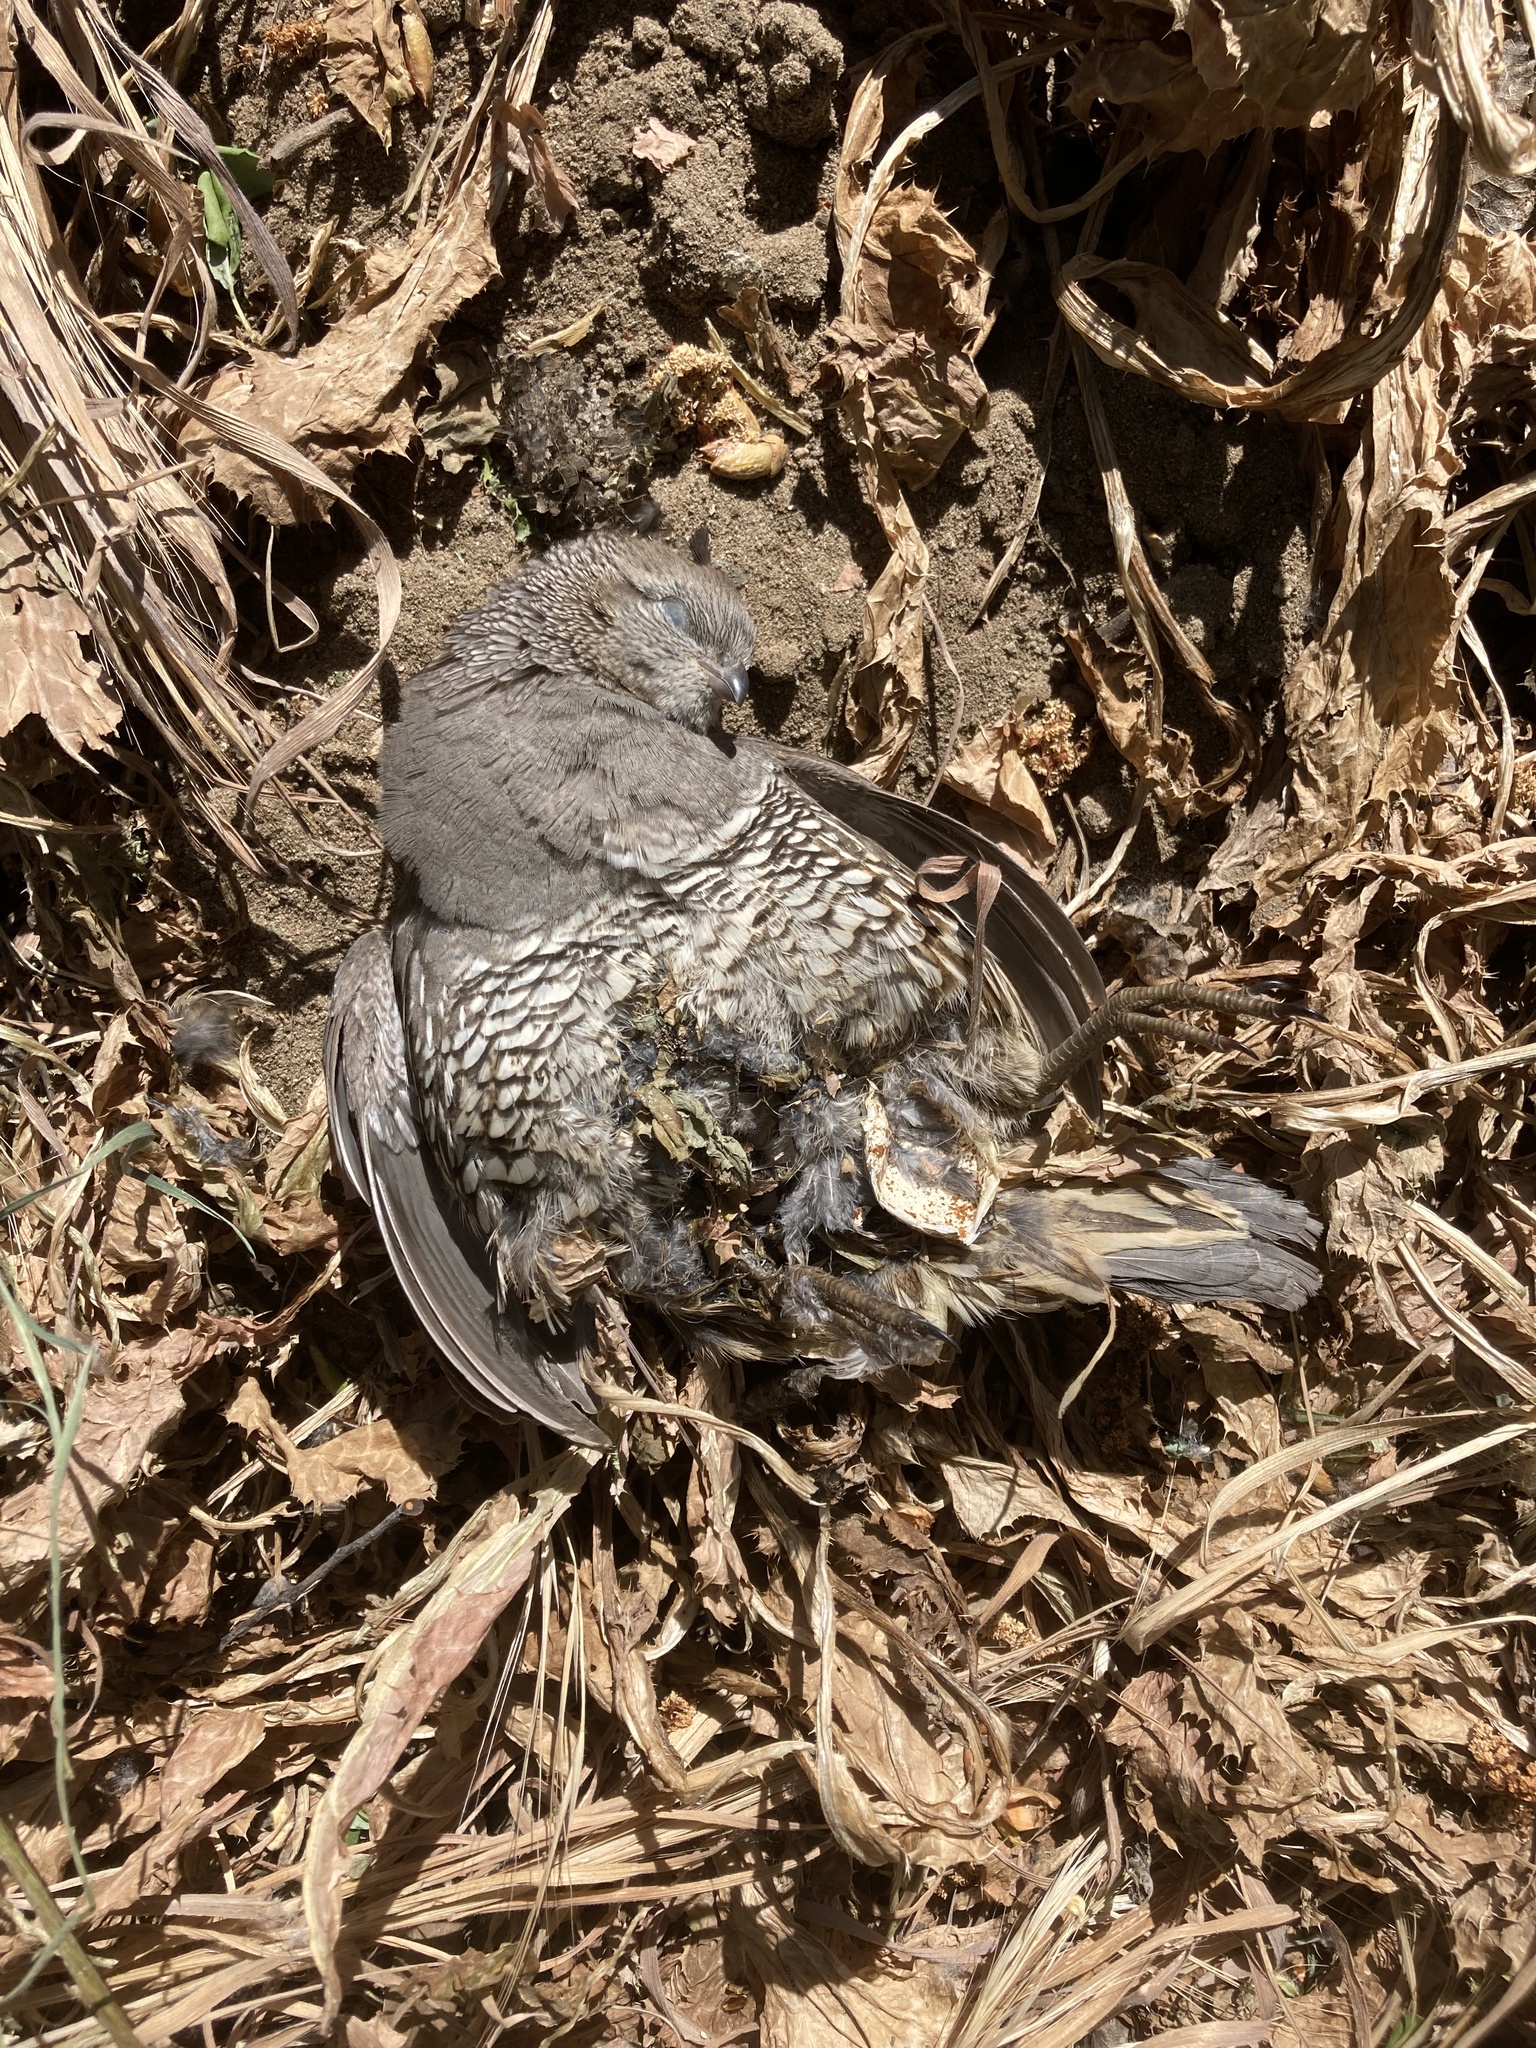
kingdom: Animalia
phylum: Chordata
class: Aves
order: Galliformes
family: Odontophoridae
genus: Callipepla
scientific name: Callipepla californica
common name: California quail
